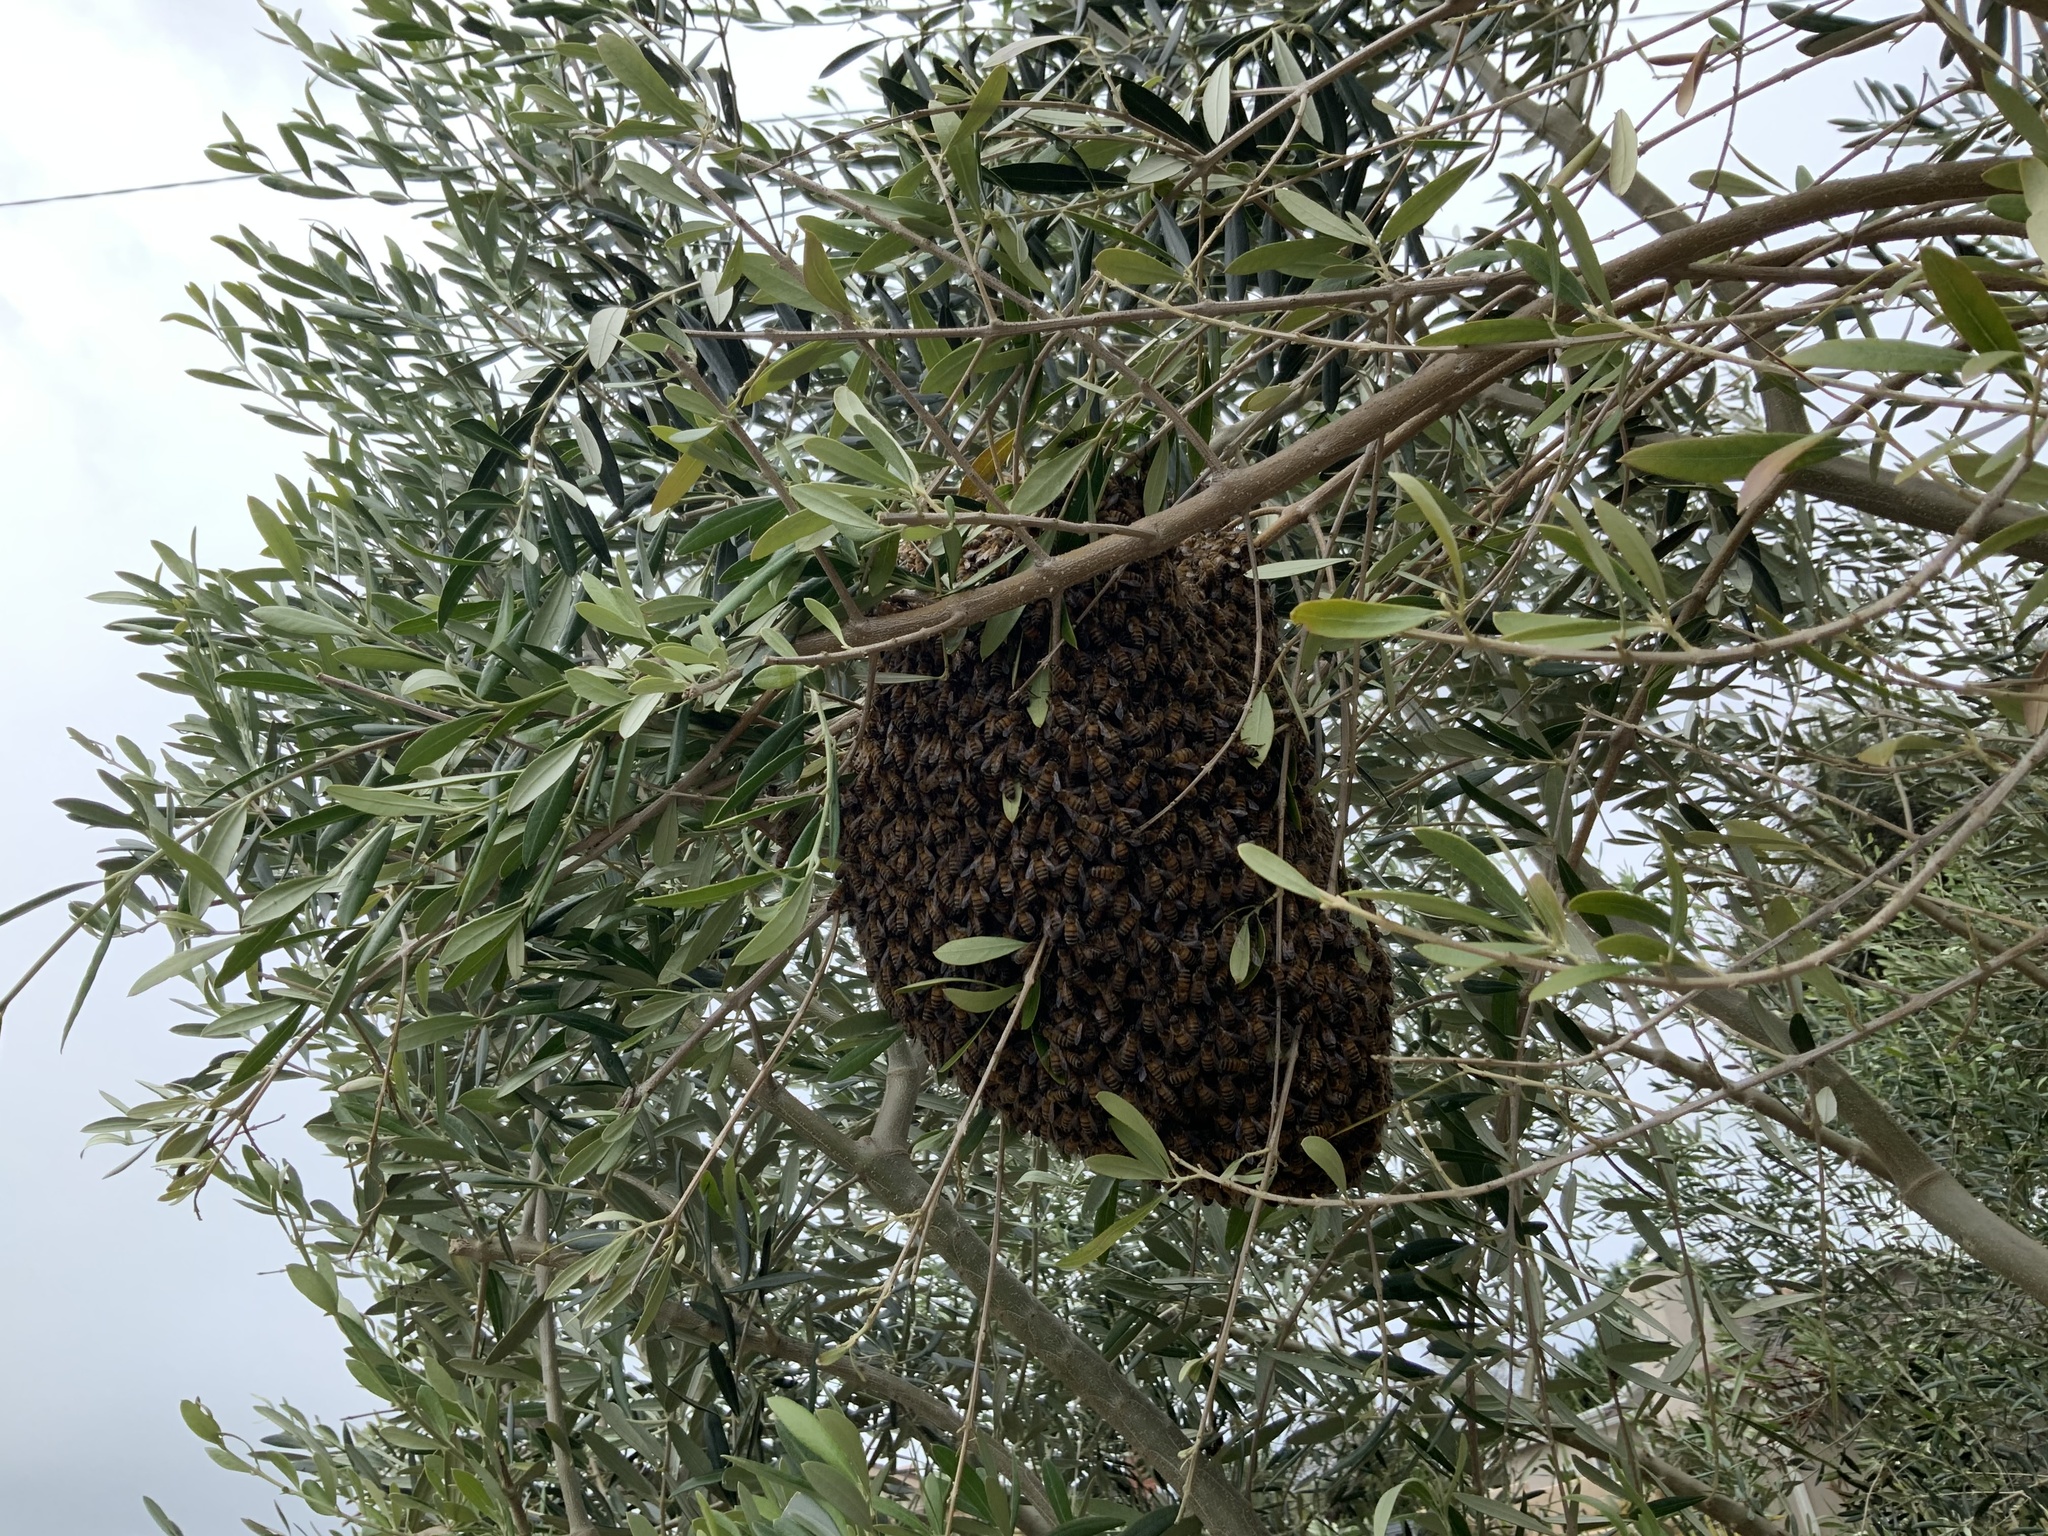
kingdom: Animalia
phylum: Arthropoda
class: Insecta
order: Hymenoptera
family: Apidae
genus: Apis
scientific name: Apis mellifera
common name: Honey bee
